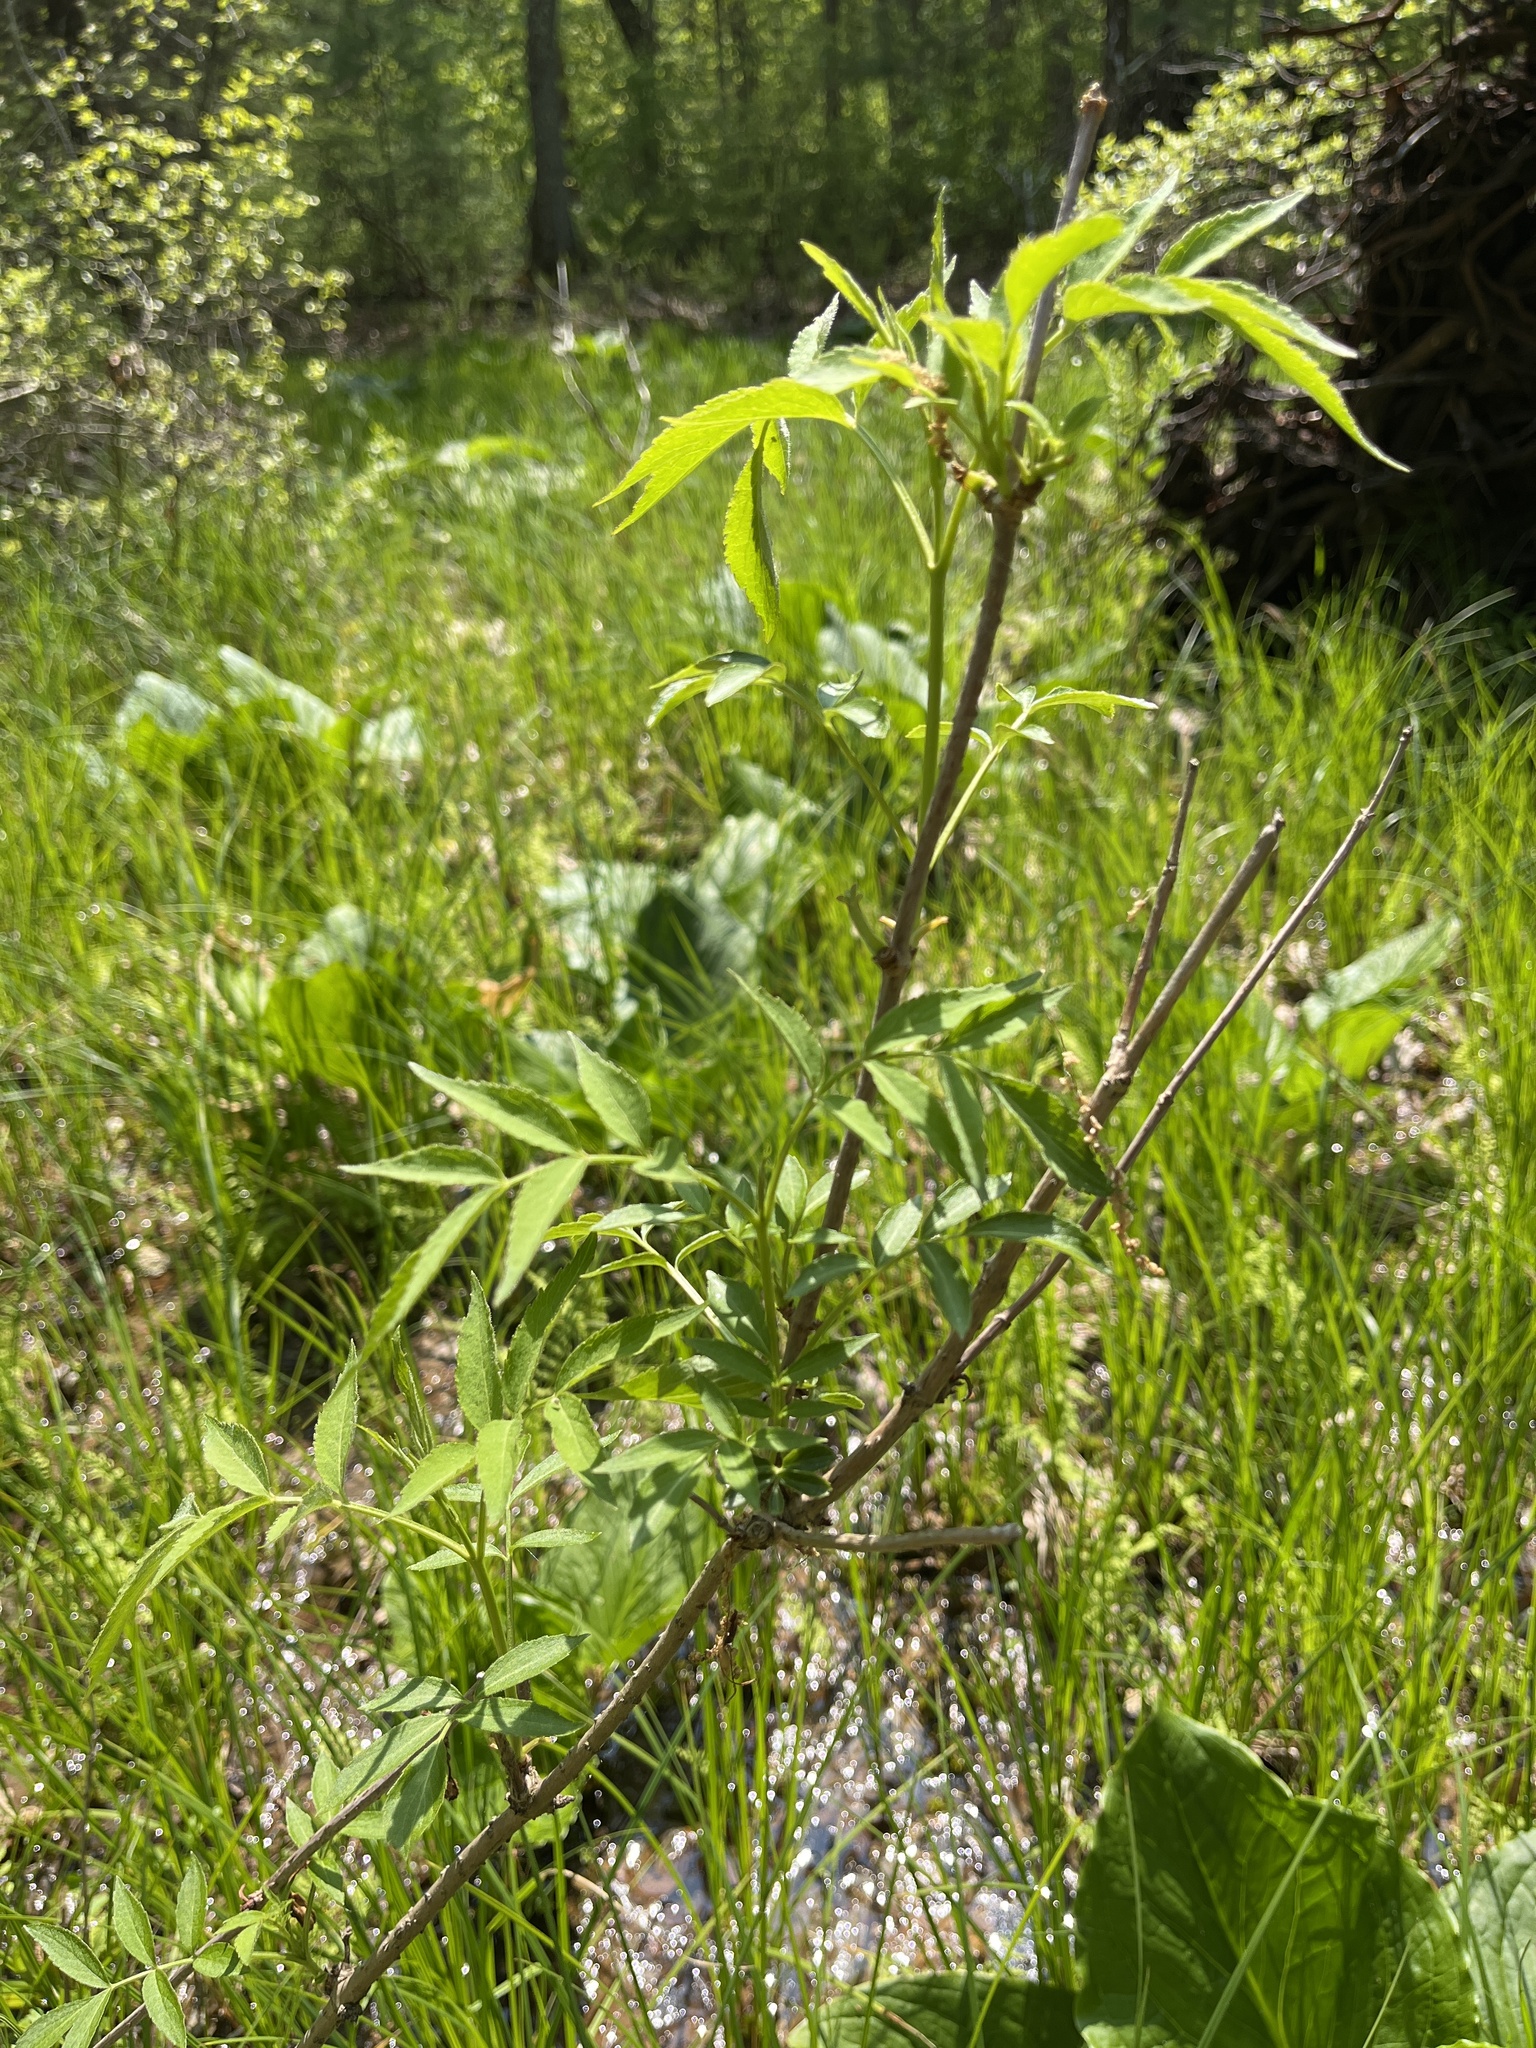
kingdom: Plantae
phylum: Tracheophyta
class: Magnoliopsida
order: Dipsacales
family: Viburnaceae
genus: Sambucus
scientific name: Sambucus canadensis
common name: American elder
